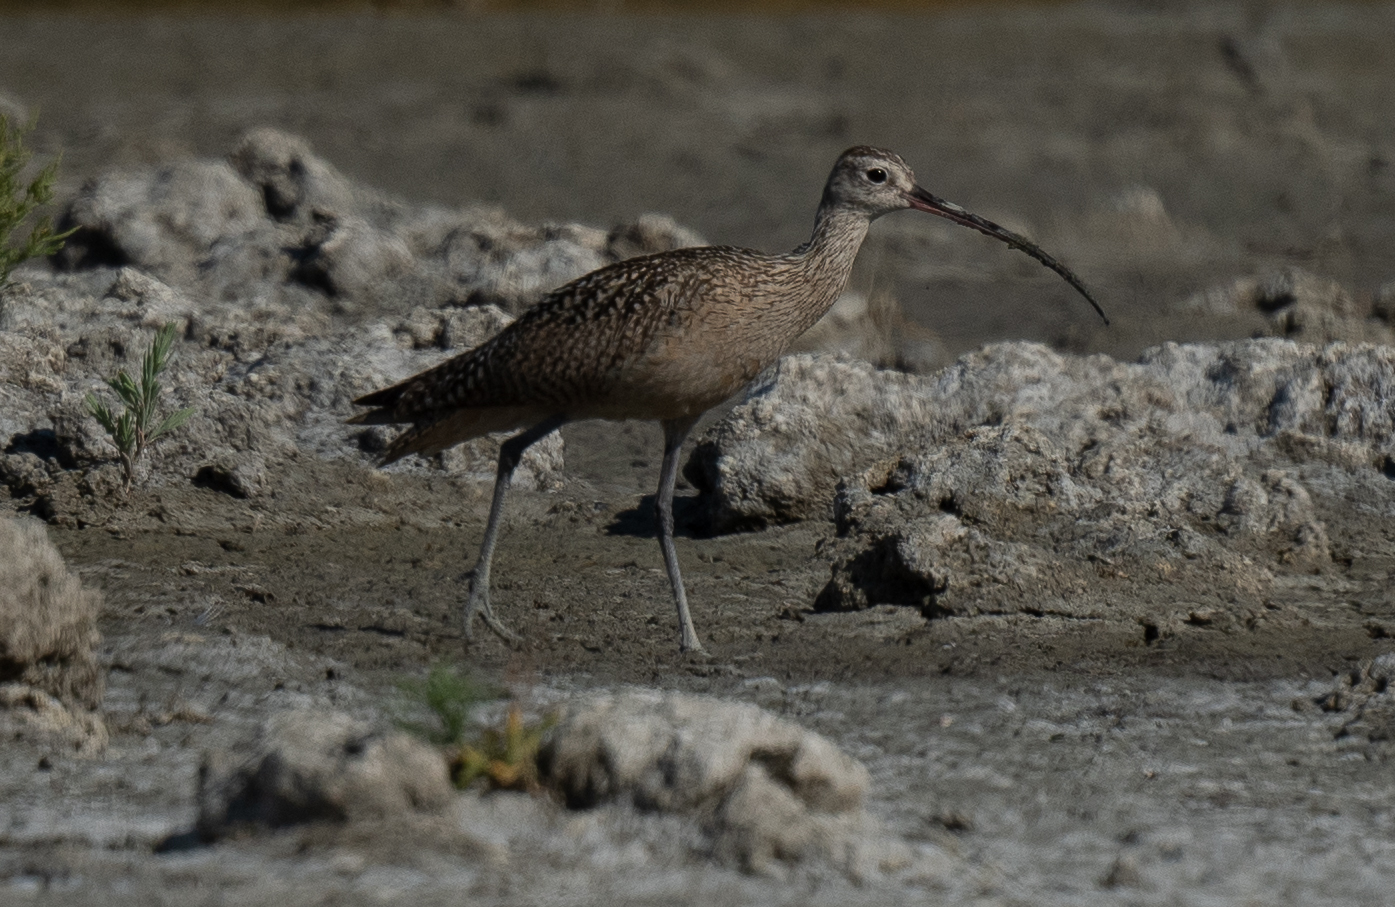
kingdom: Animalia
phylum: Chordata
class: Aves
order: Charadriiformes
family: Scolopacidae
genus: Numenius
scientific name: Numenius americanus
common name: Long-billed curlew
